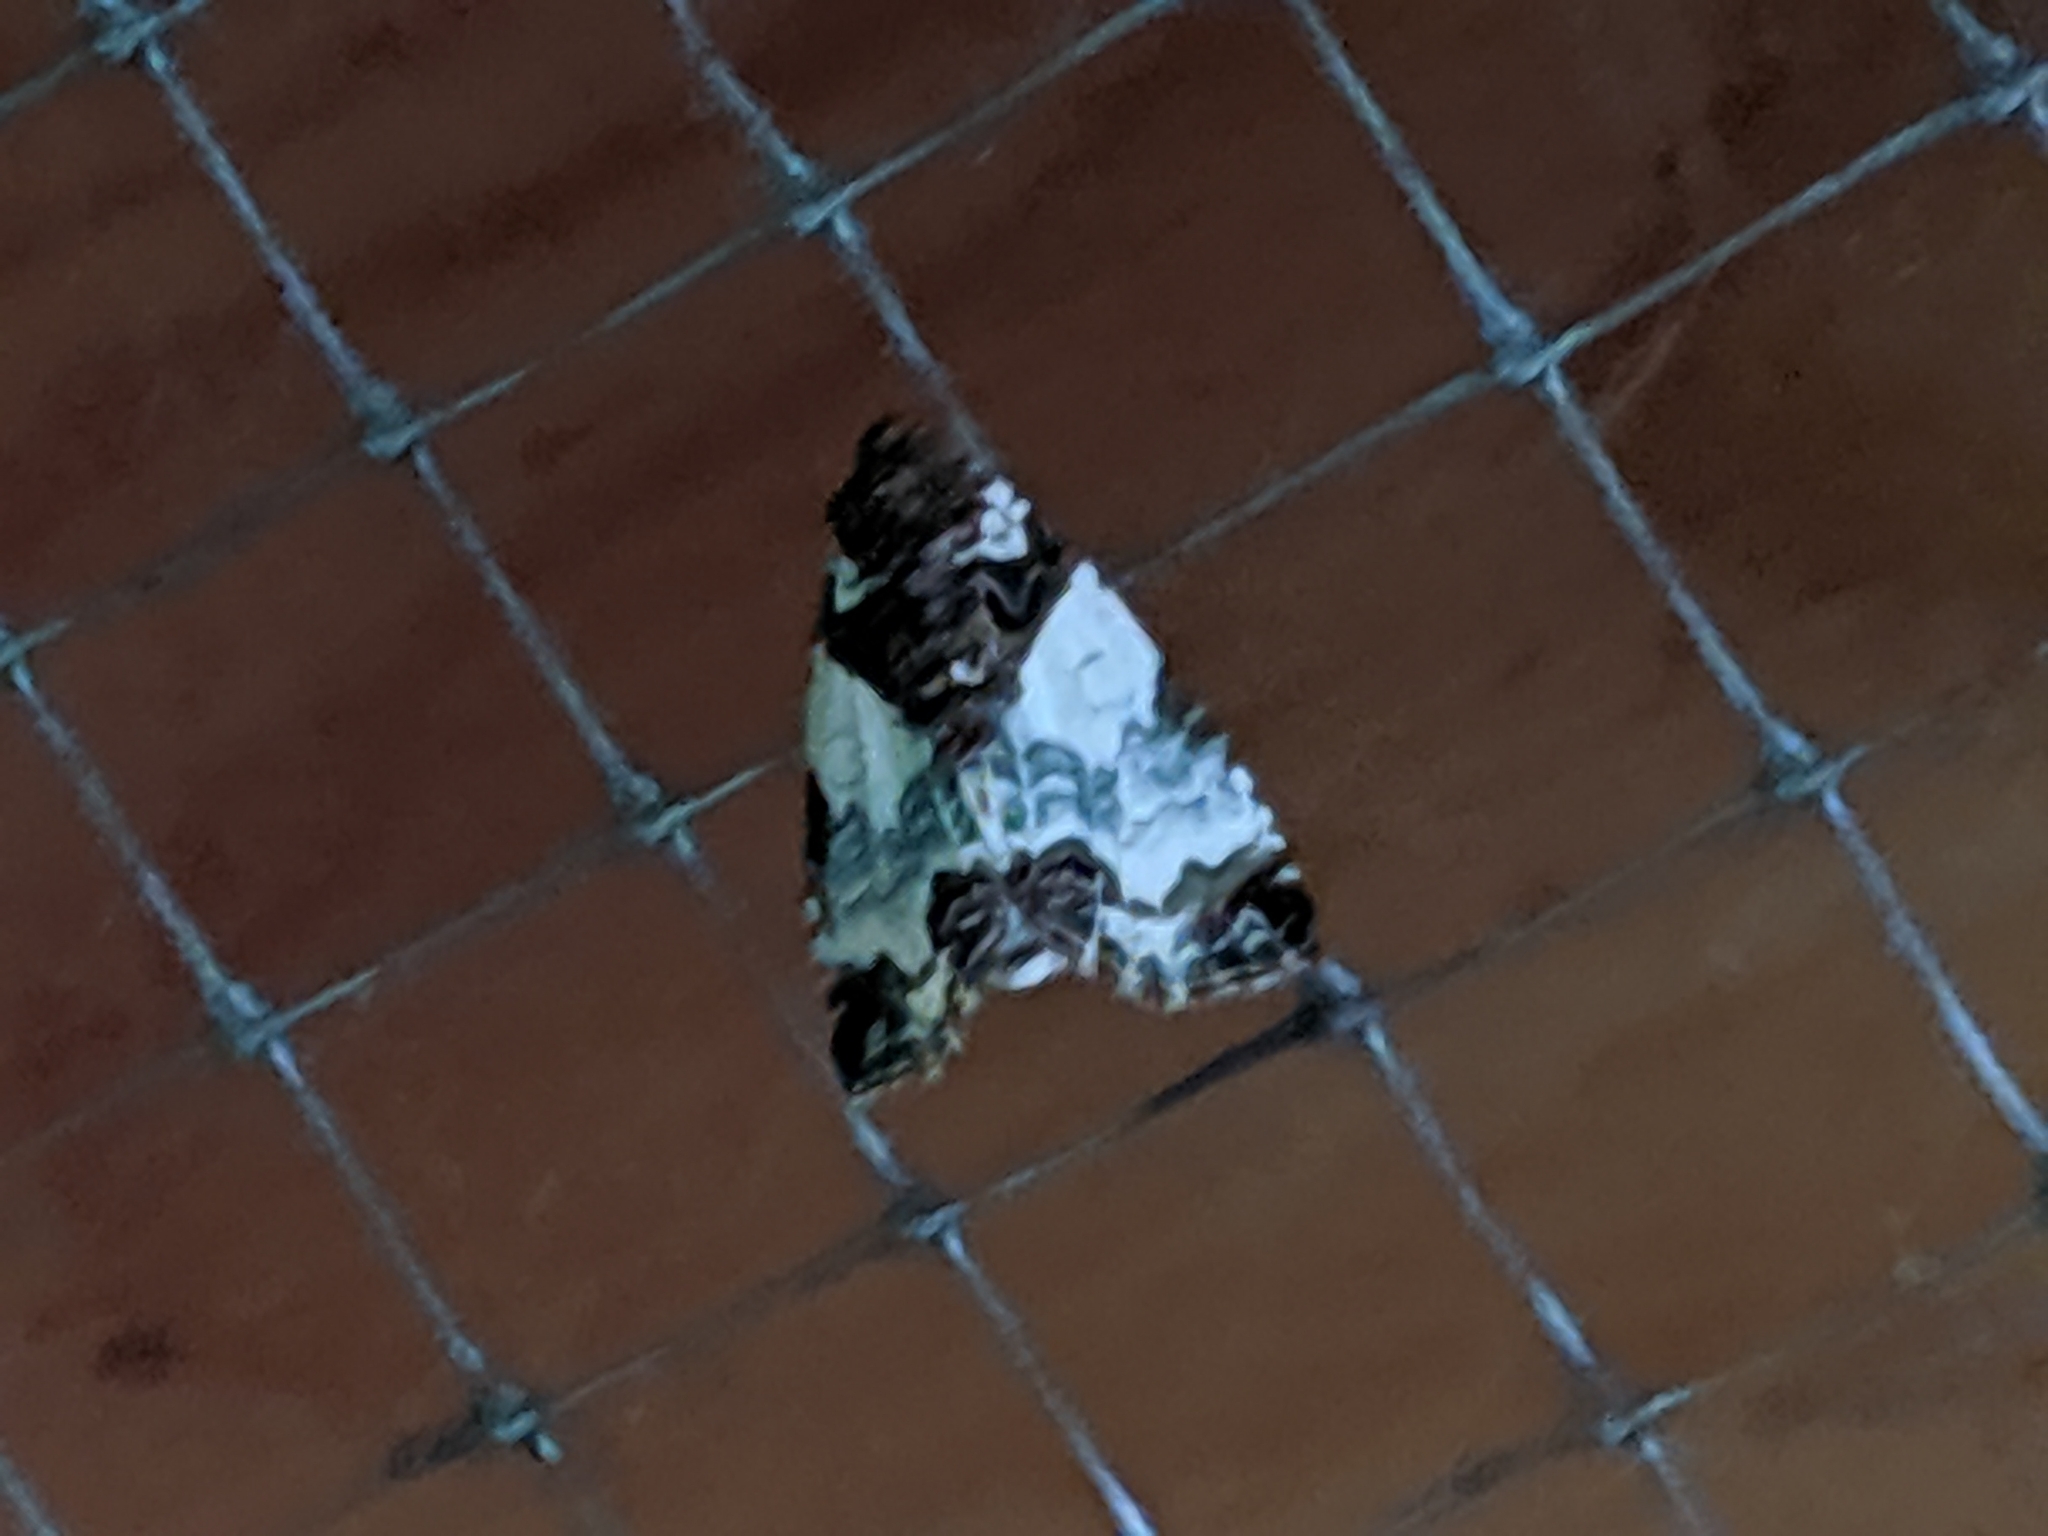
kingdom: Animalia
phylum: Arthropoda
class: Insecta
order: Lepidoptera
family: Noctuidae
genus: Cerma
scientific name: Cerma cerintha
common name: Tufted bird-dropping moth
